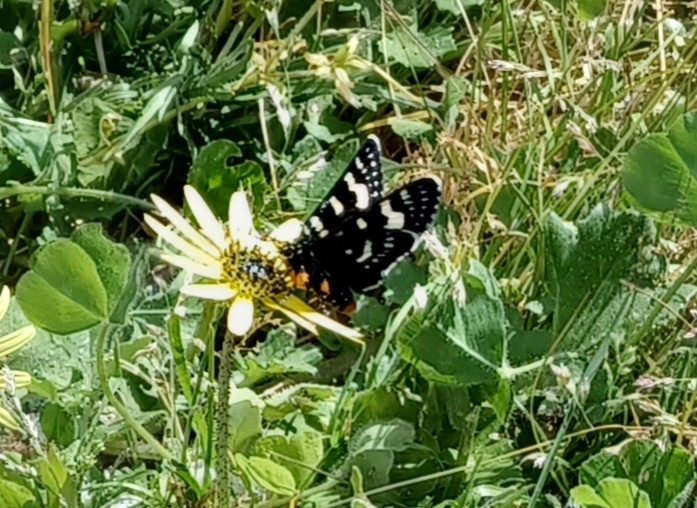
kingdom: Animalia
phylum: Arthropoda
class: Insecta
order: Lepidoptera
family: Noctuidae
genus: Phalaenoides
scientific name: Phalaenoides tristifica
